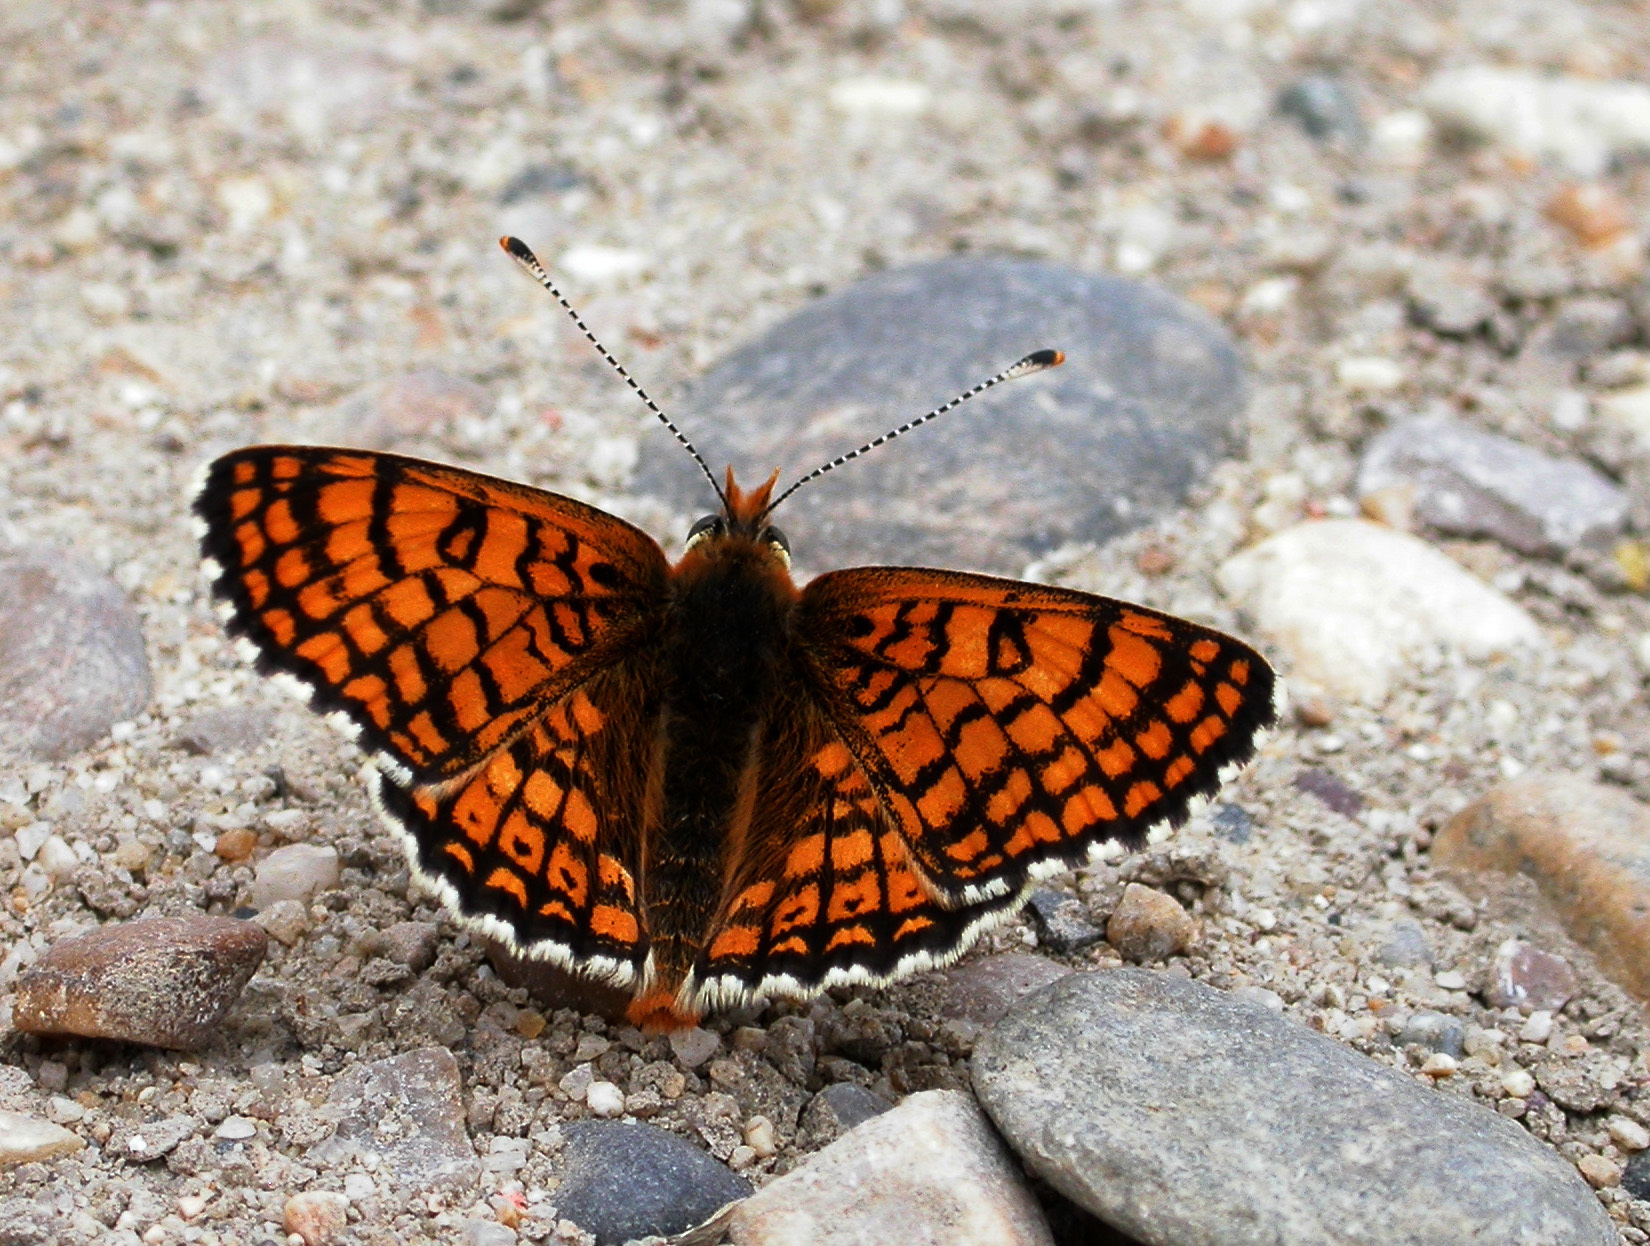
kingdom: Animalia
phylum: Arthropoda
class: Insecta
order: Lepidoptera
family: Nymphalidae
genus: Melitaea
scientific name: Melitaea cinxia
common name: Glanville fritillary
